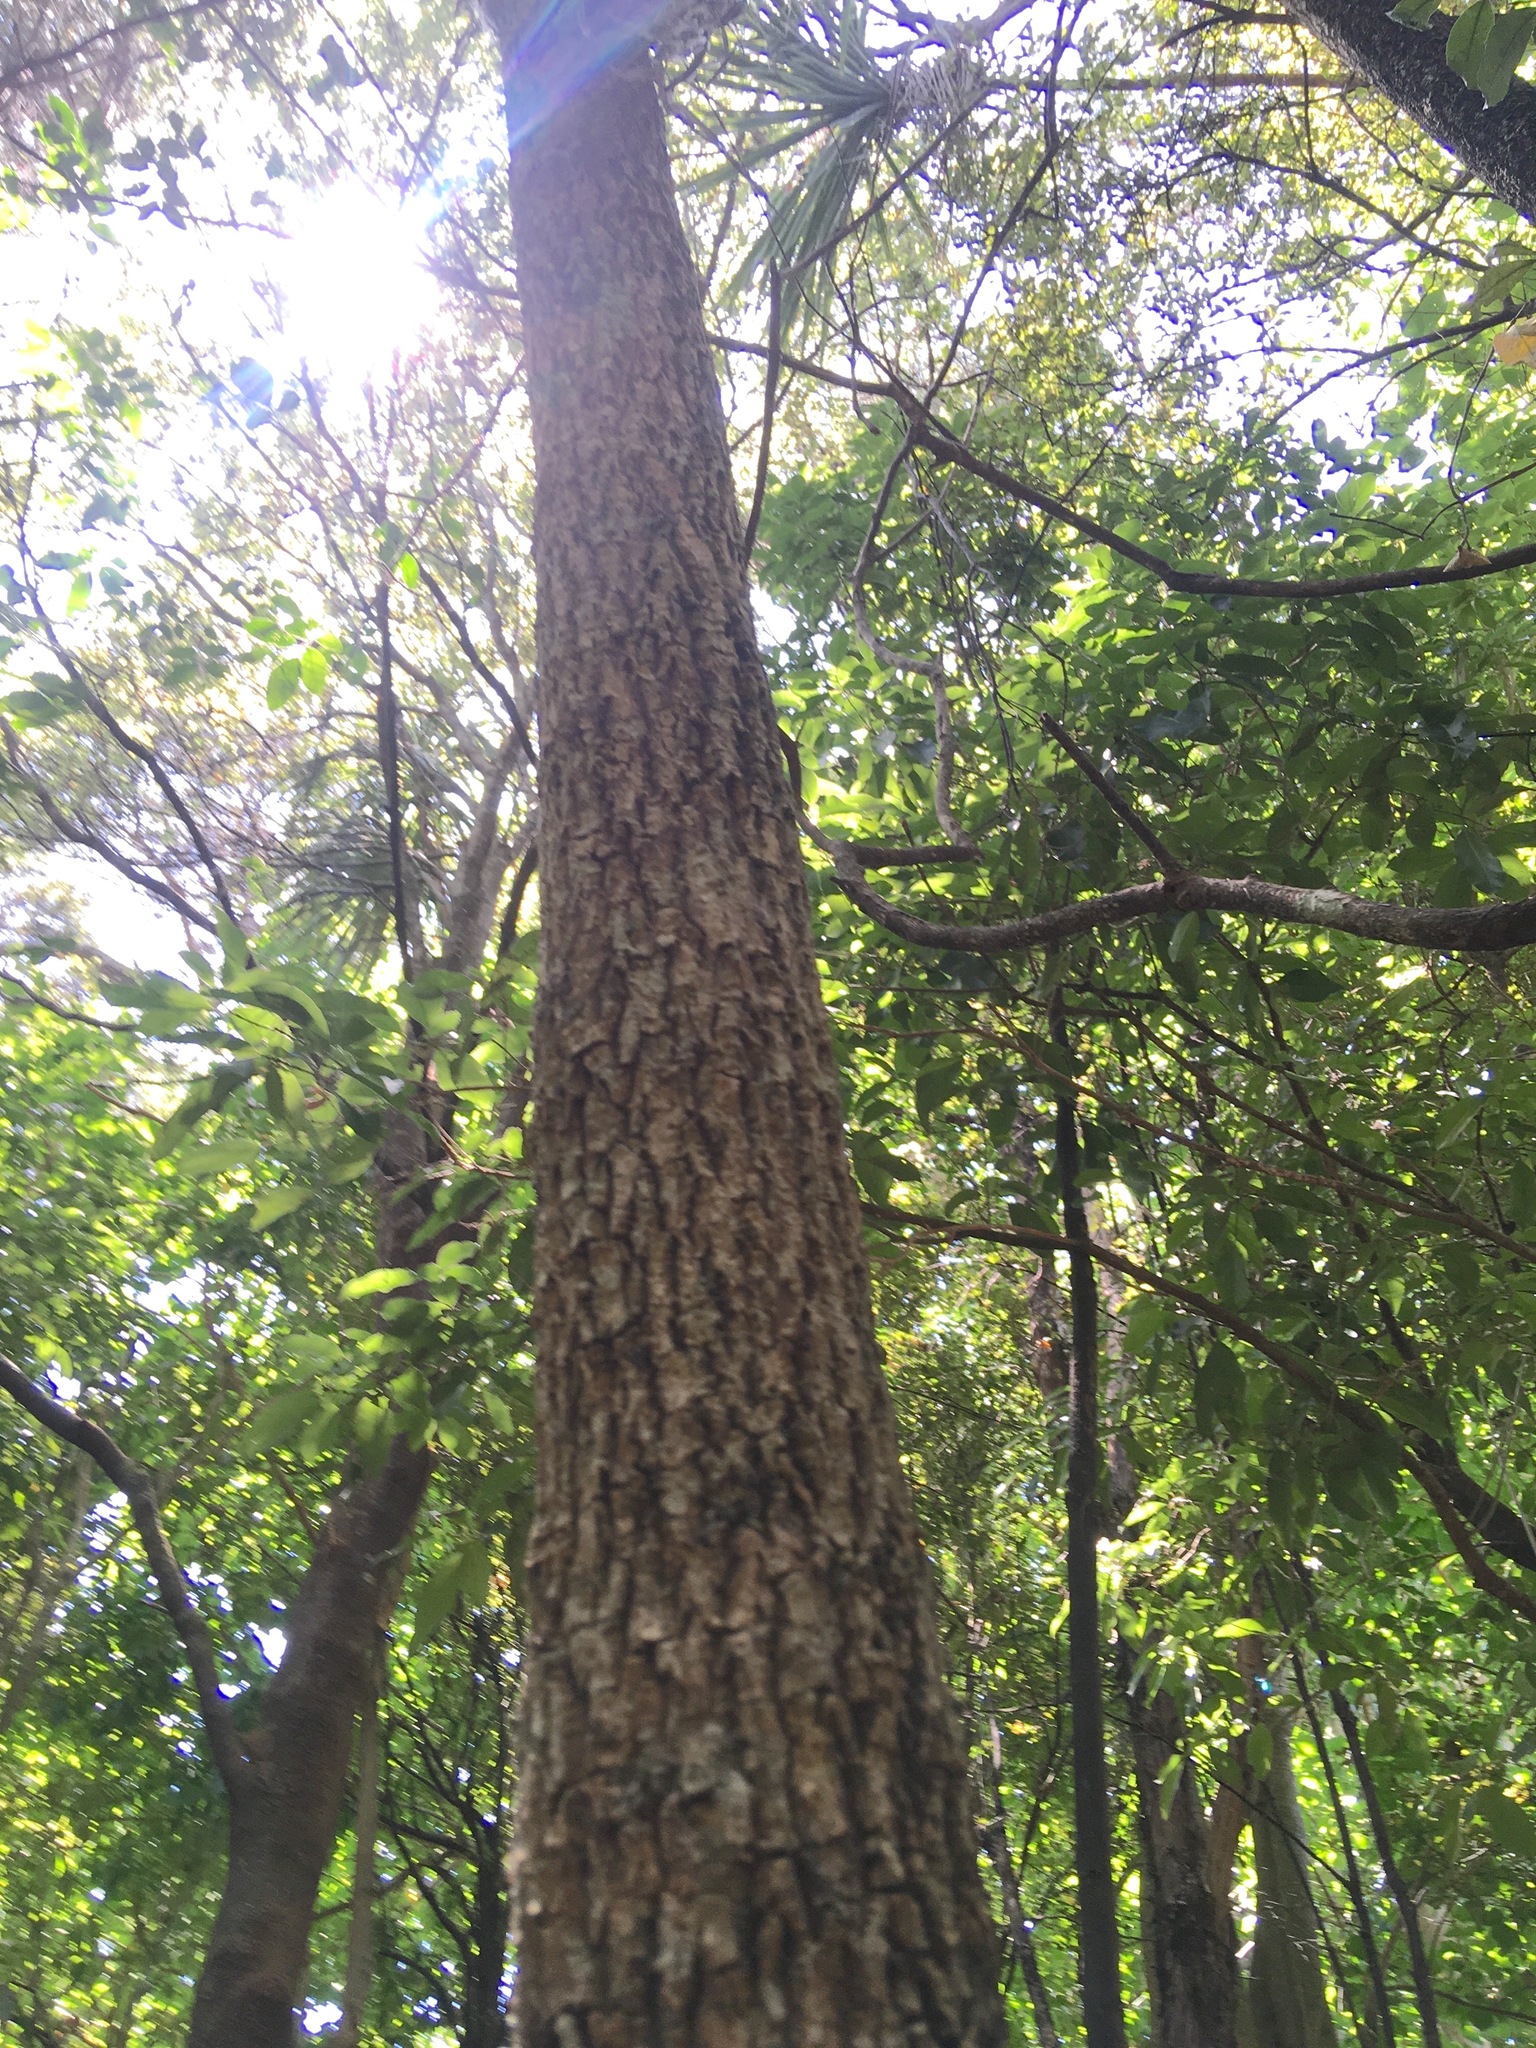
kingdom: Plantae
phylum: Tracheophyta
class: Liliopsida
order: Asparagales
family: Asparagaceae
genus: Cordyline
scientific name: Cordyline australis
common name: Cabbage-palm
